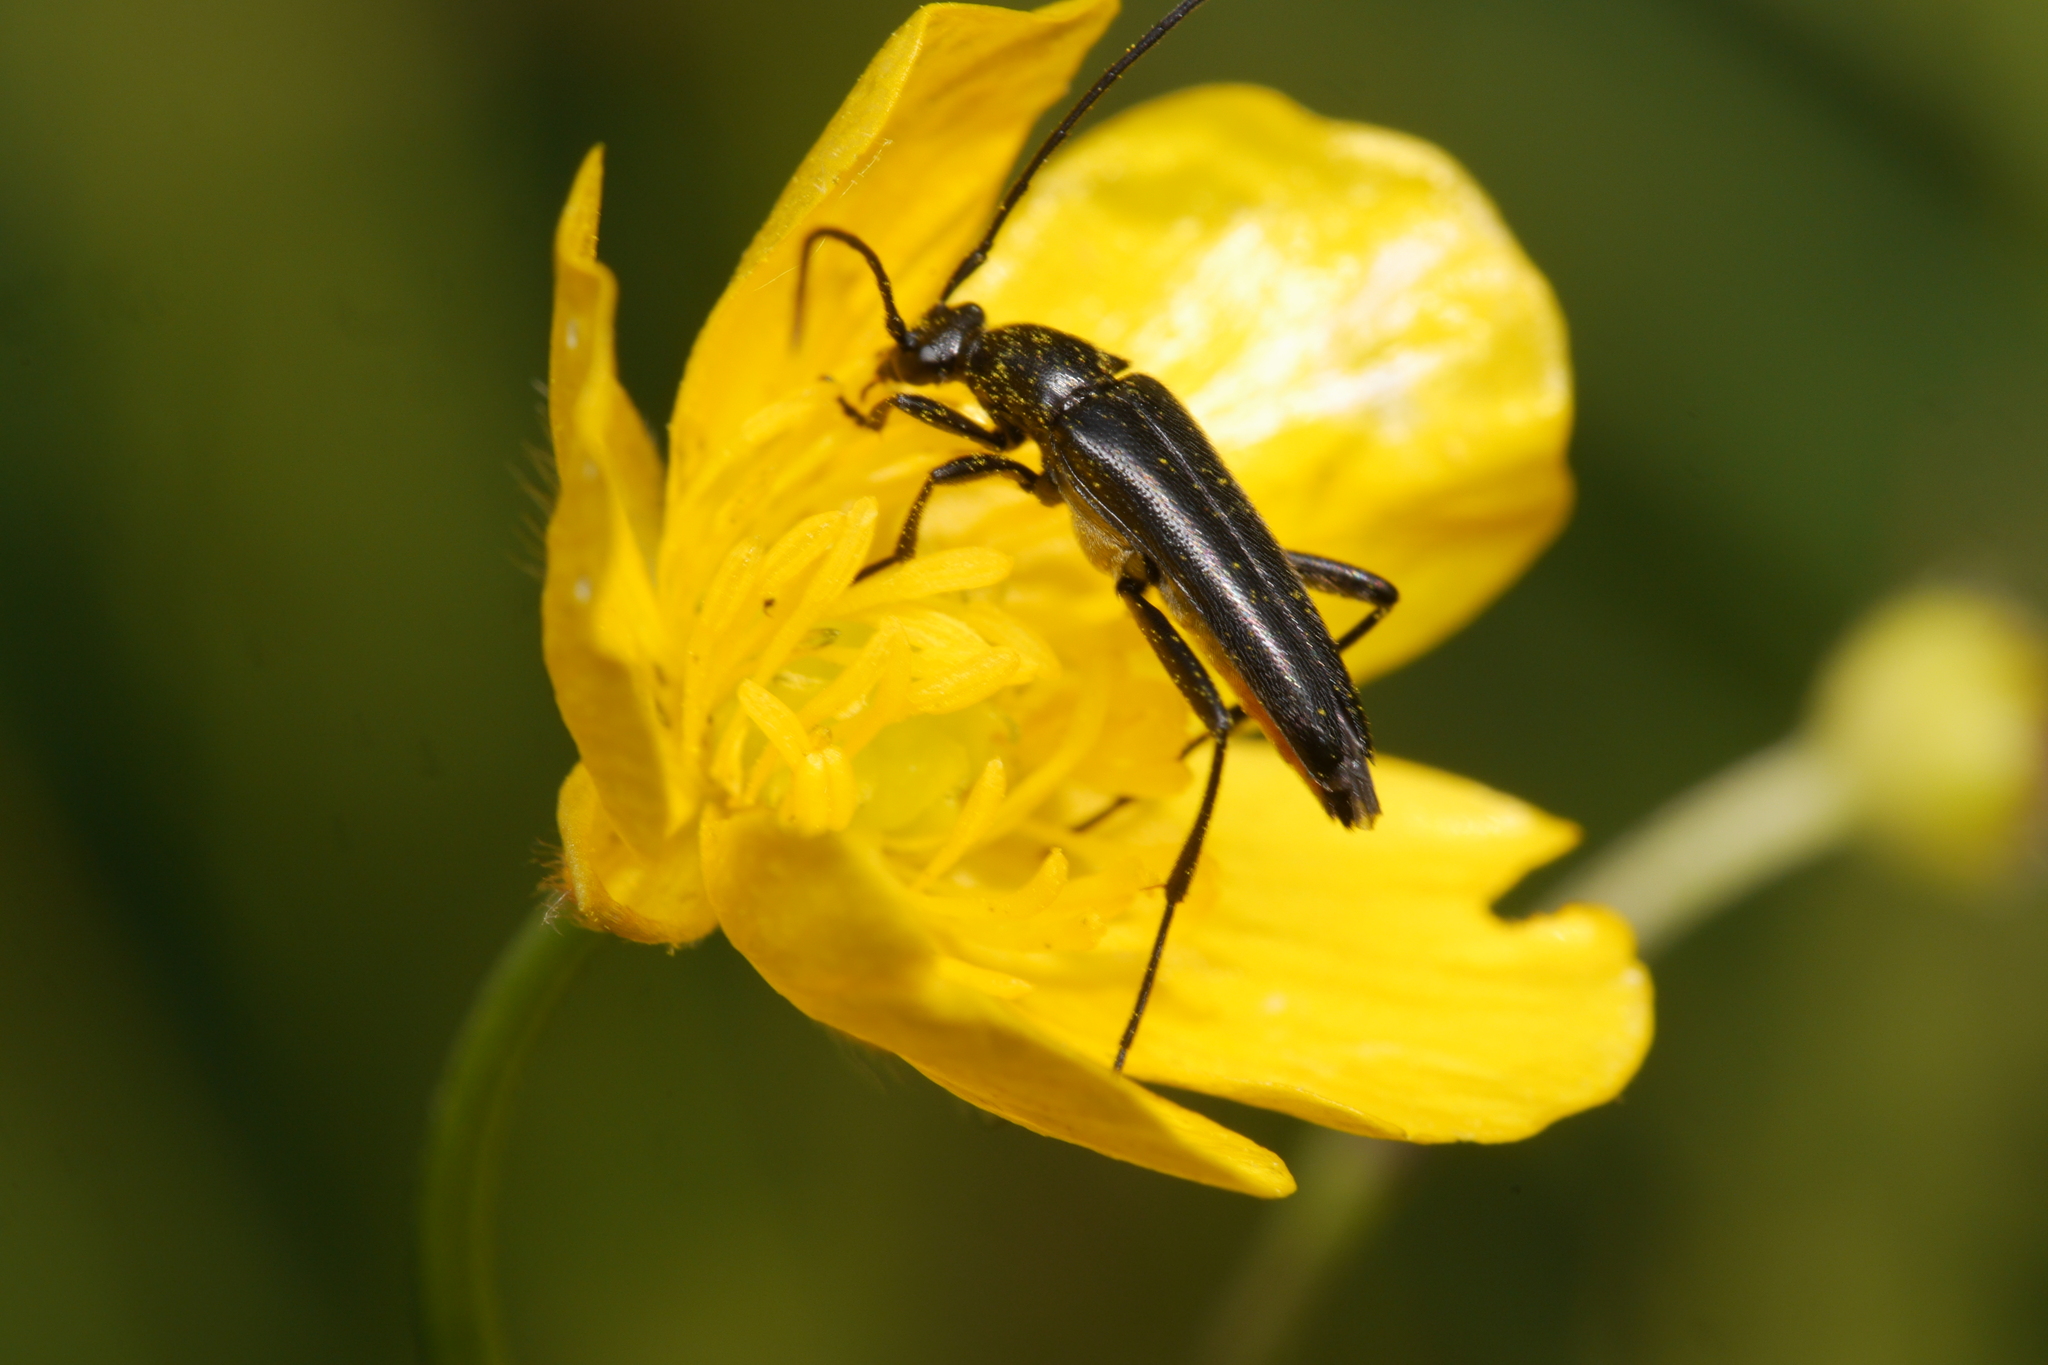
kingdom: Animalia
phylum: Arthropoda
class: Insecta
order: Coleoptera
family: Cerambycidae
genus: Stenurella
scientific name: Stenurella nigra
